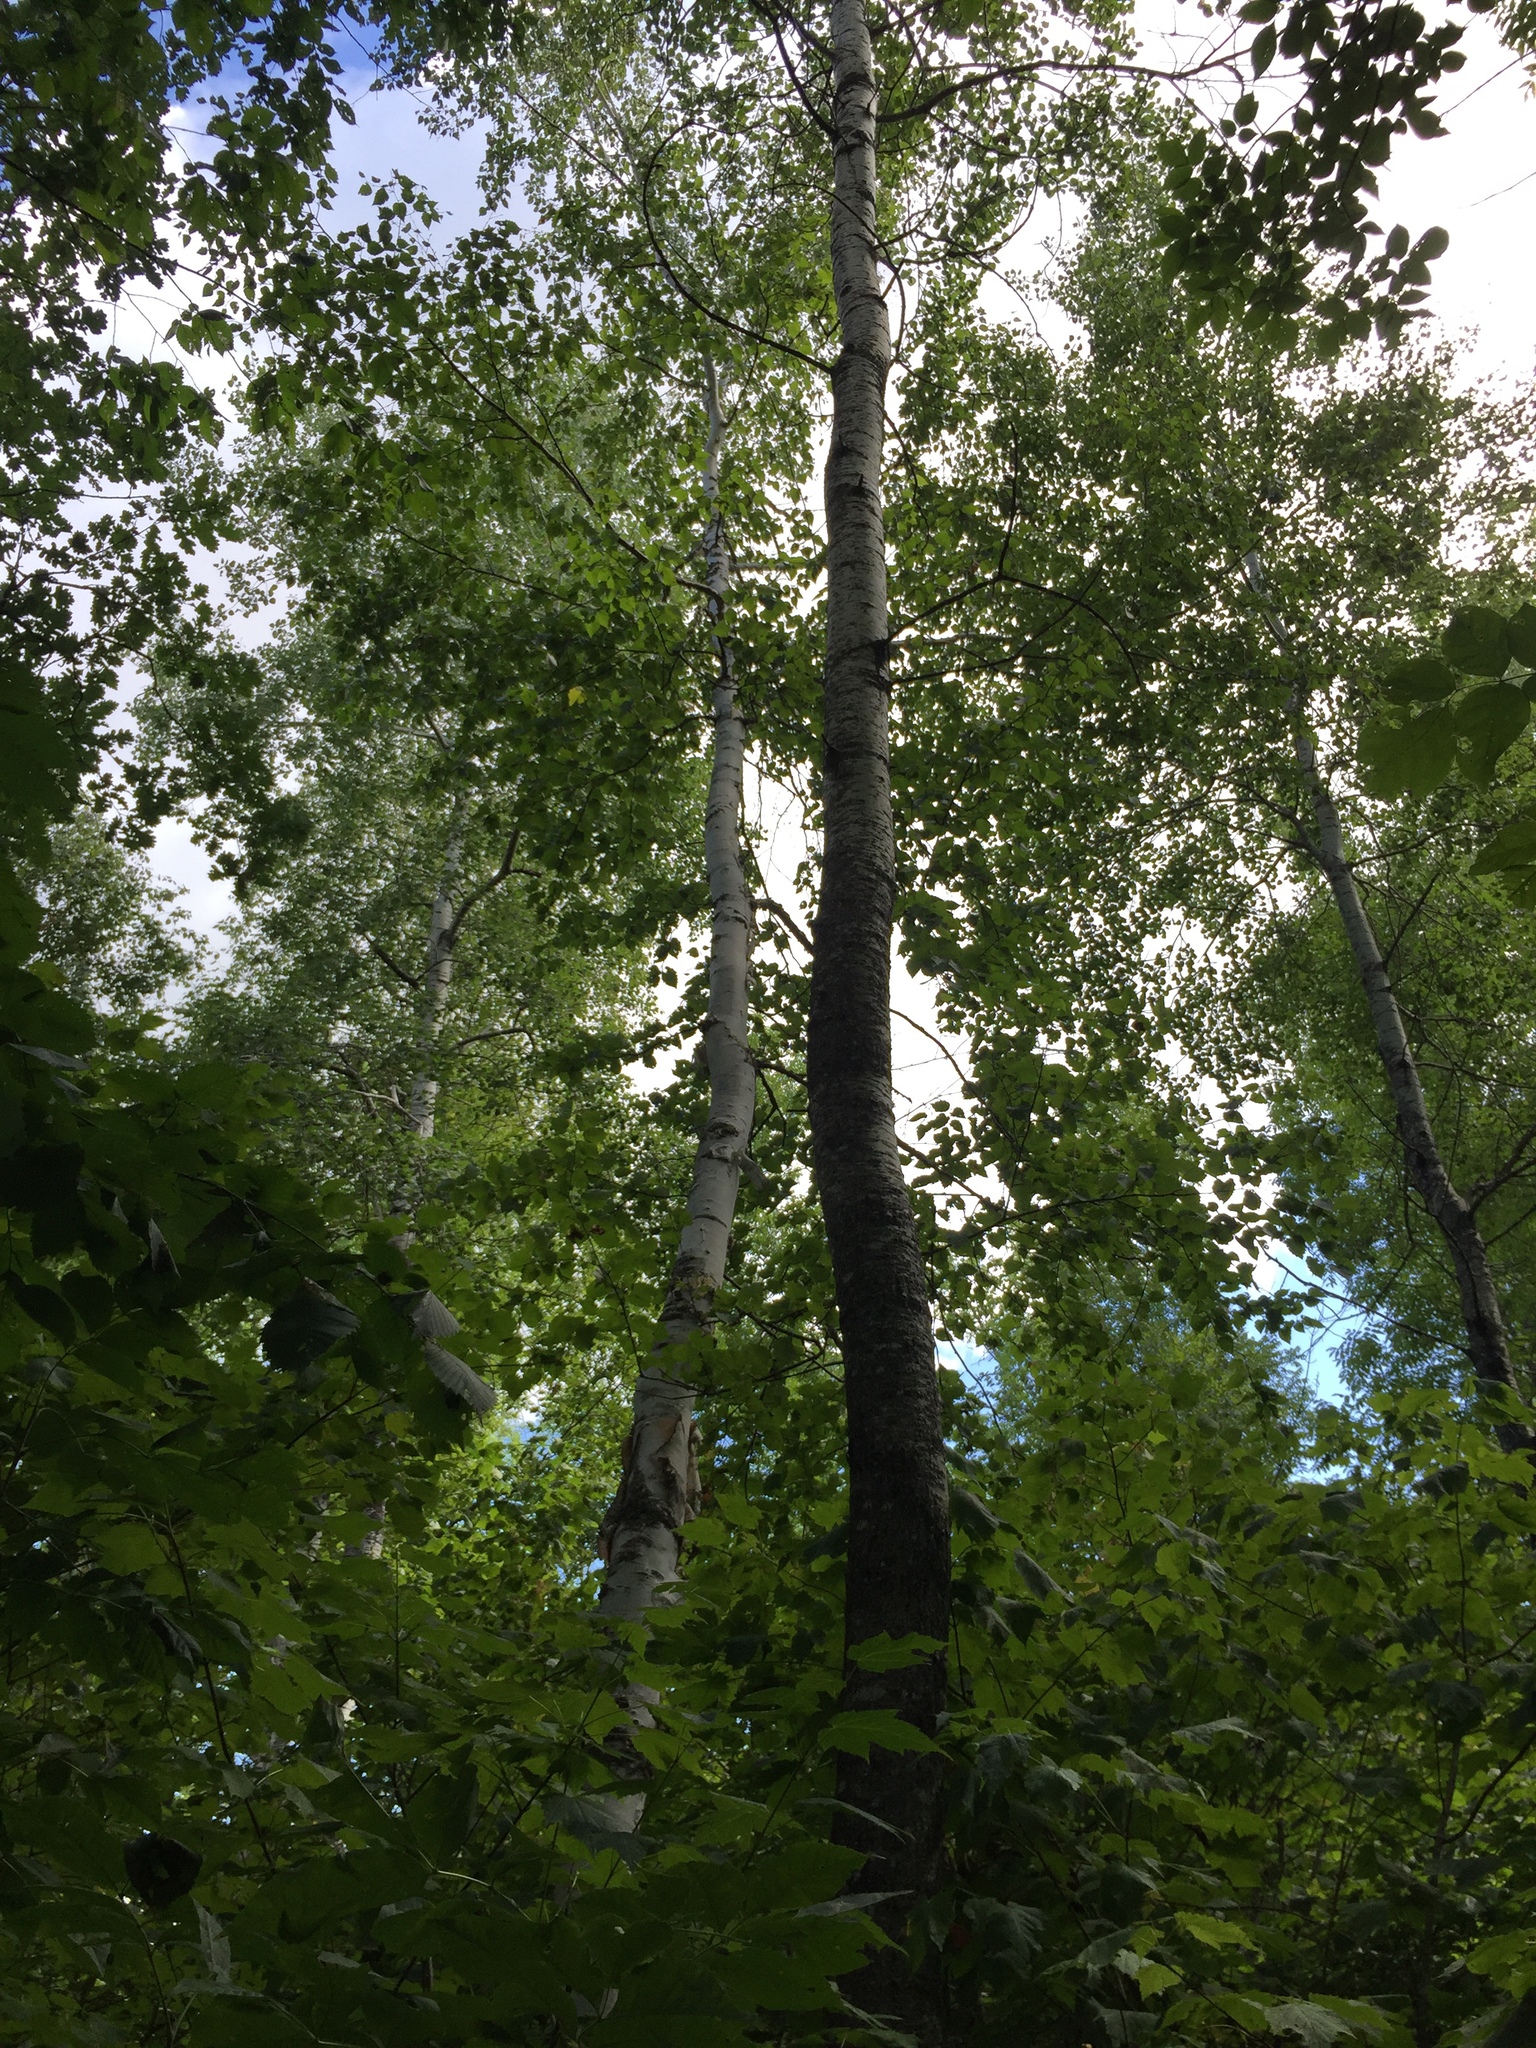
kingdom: Plantae
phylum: Tracheophyta
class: Magnoliopsida
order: Malpighiales
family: Salicaceae
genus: Populus
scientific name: Populus tremuloides
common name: Quaking aspen
